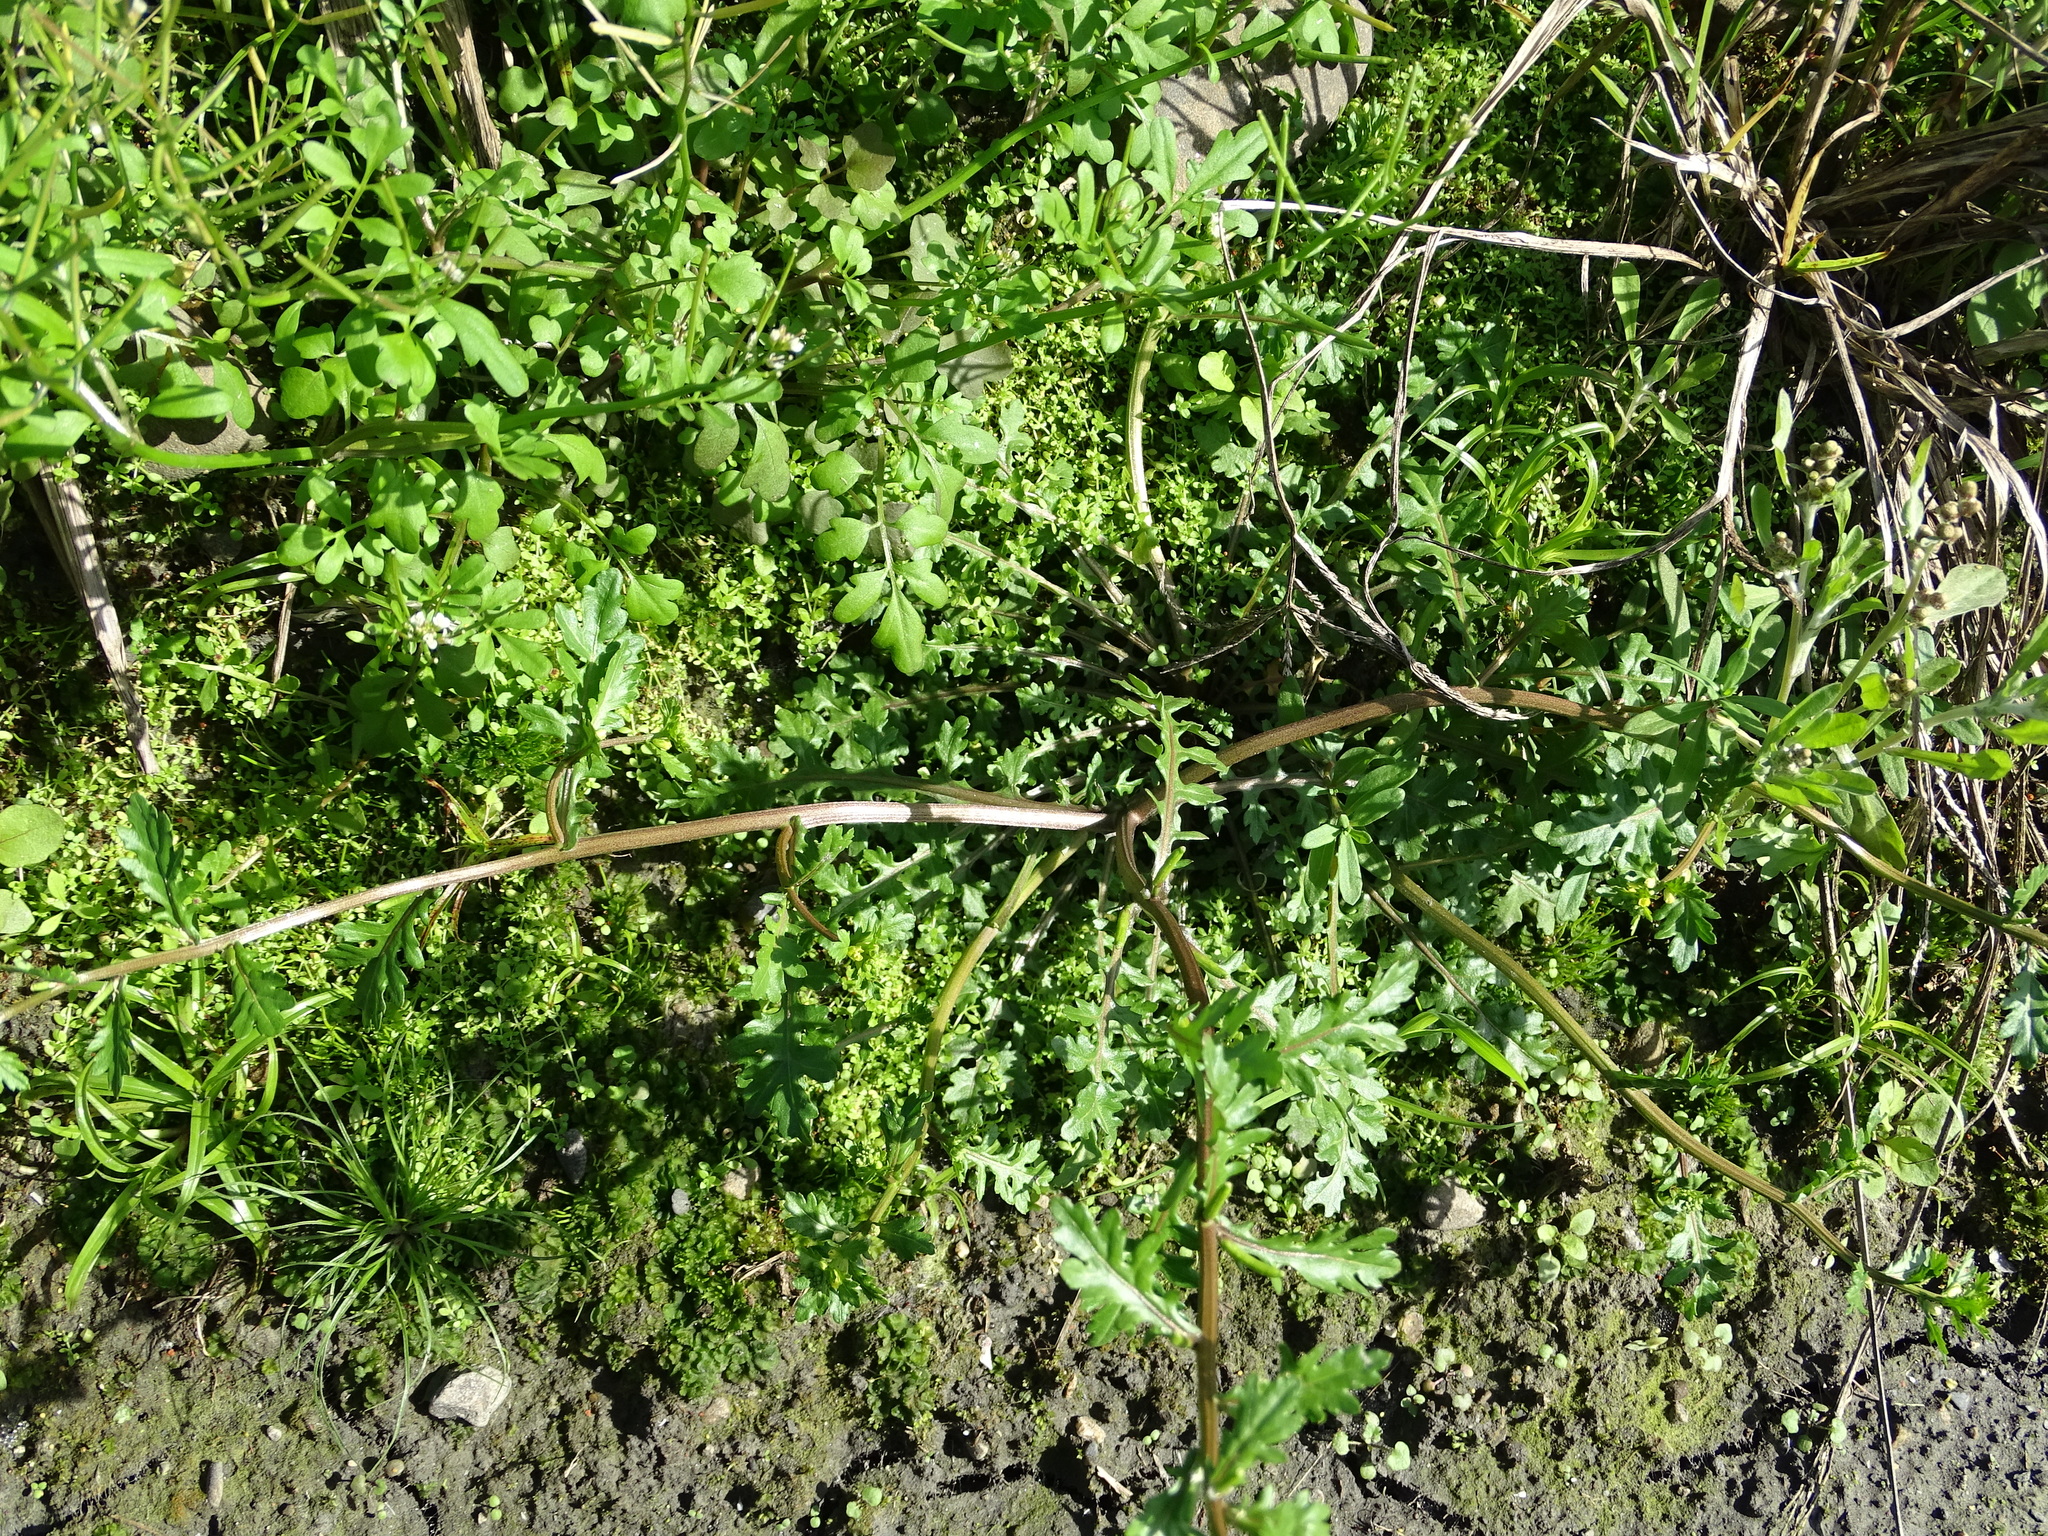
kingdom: Plantae
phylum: Tracheophyta
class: Magnoliopsida
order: Brassicales
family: Brassicaceae
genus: Rorippa
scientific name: Rorippa cantoniensis
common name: Chinese yellowcress
